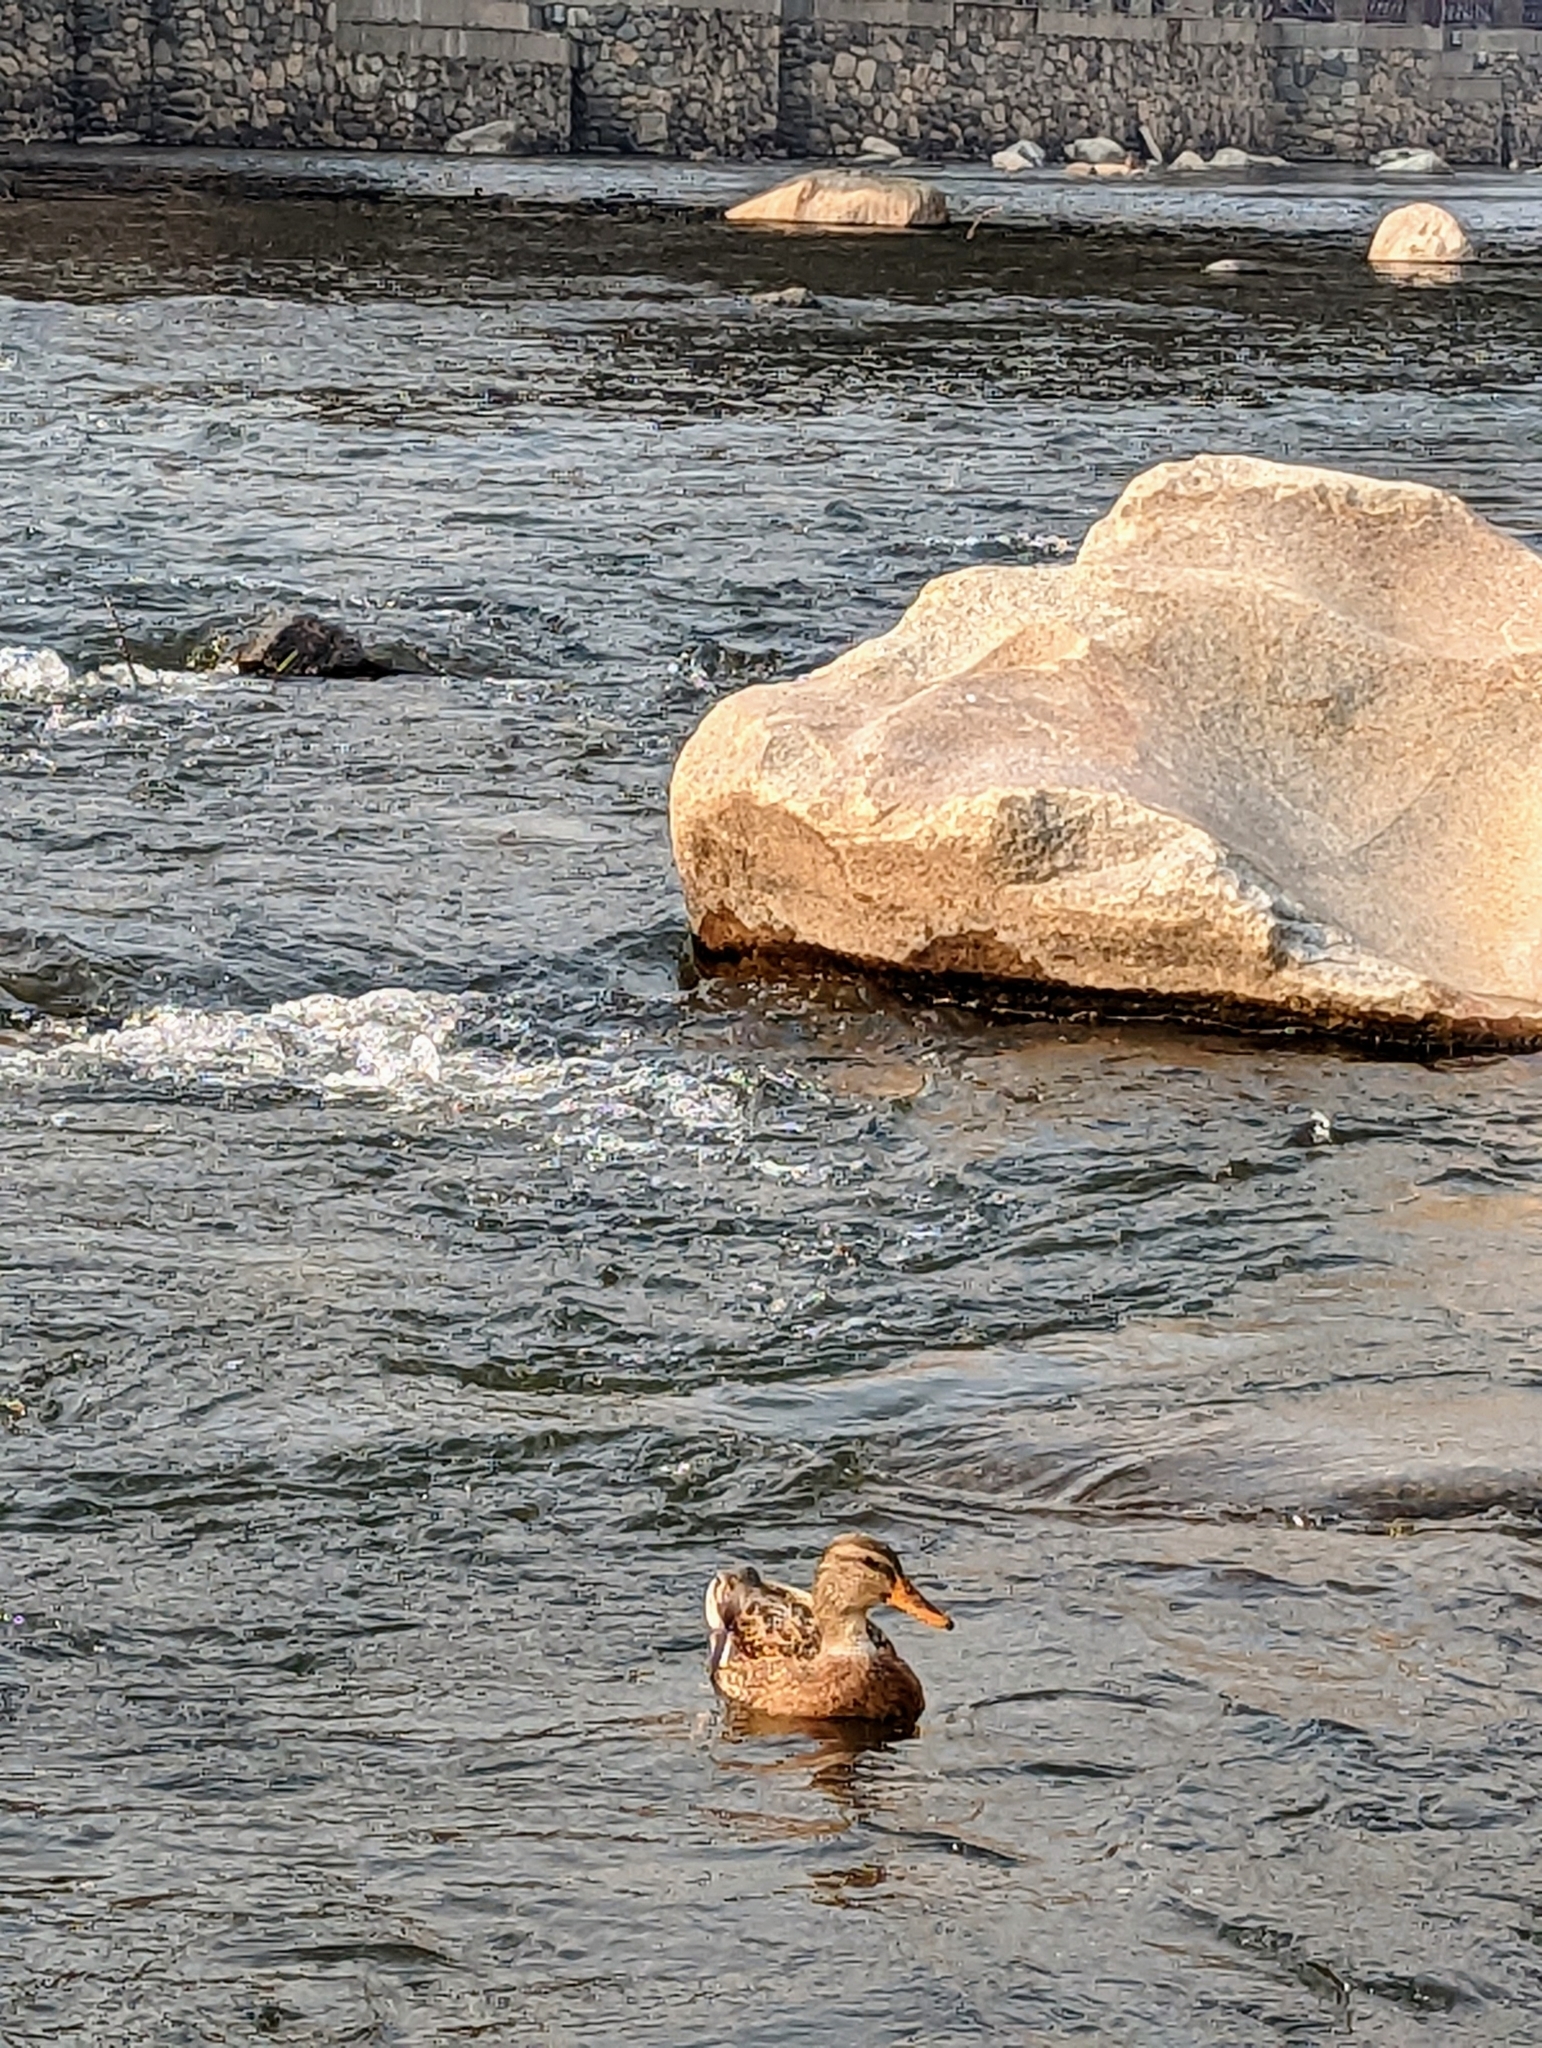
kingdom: Animalia
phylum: Chordata
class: Aves
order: Anseriformes
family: Anatidae
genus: Anas
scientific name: Anas platyrhynchos
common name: Mallard
